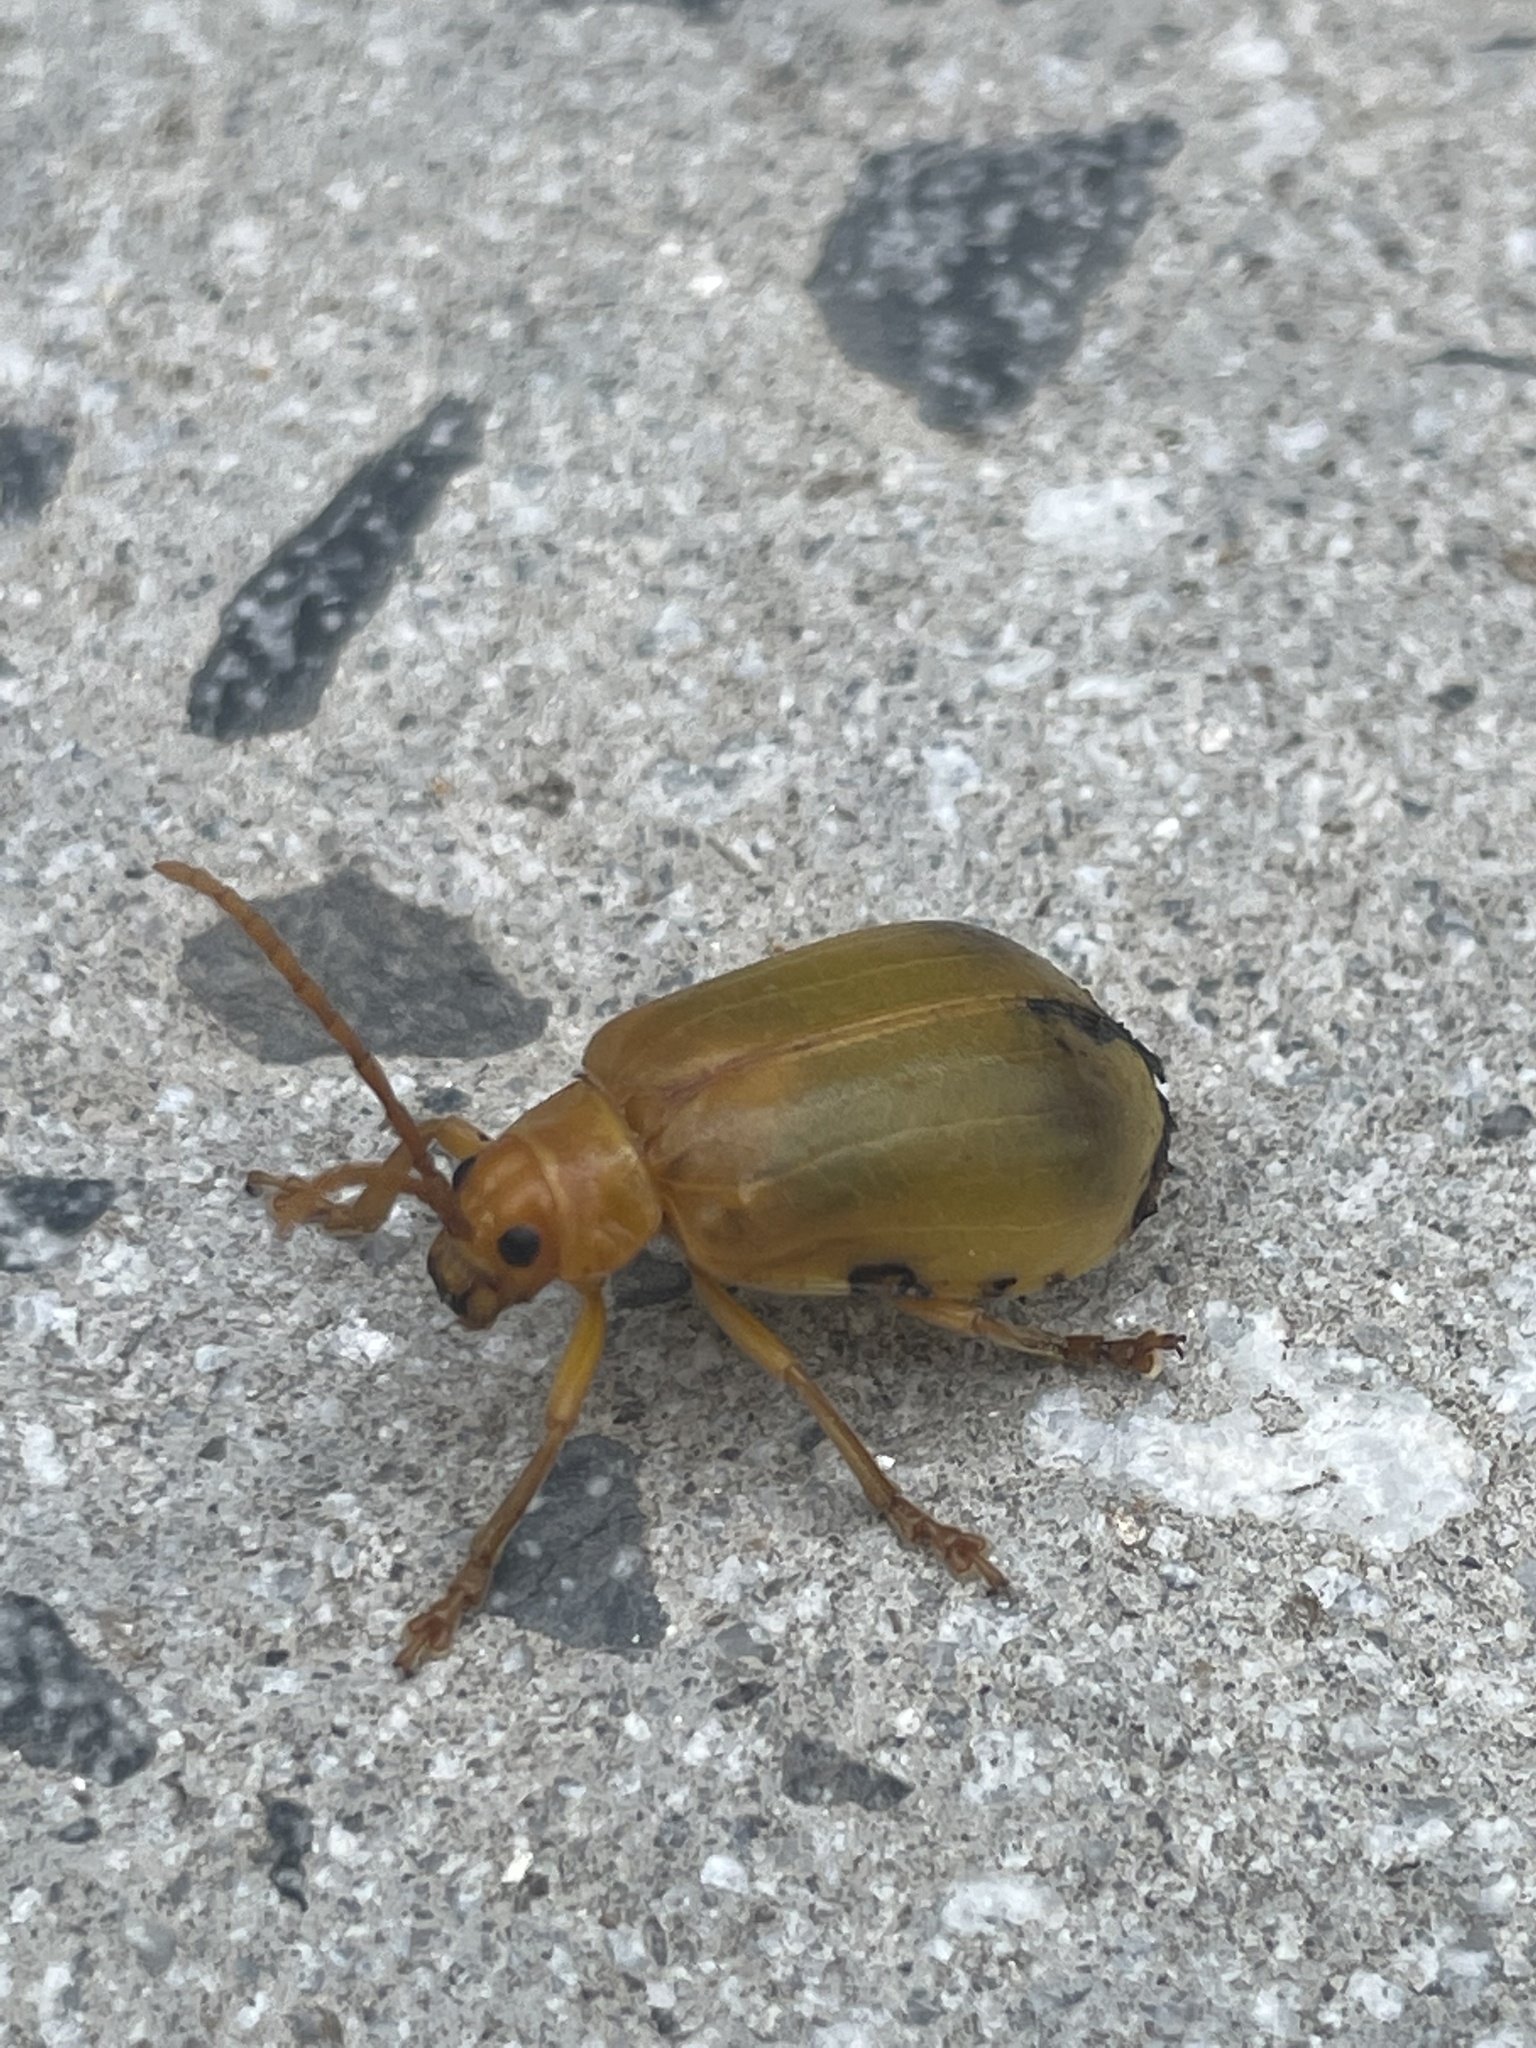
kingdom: Animalia
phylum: Arthropoda
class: Insecta
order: Coleoptera
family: Chrysomelidae
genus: Monocesta
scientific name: Monocesta coryli
